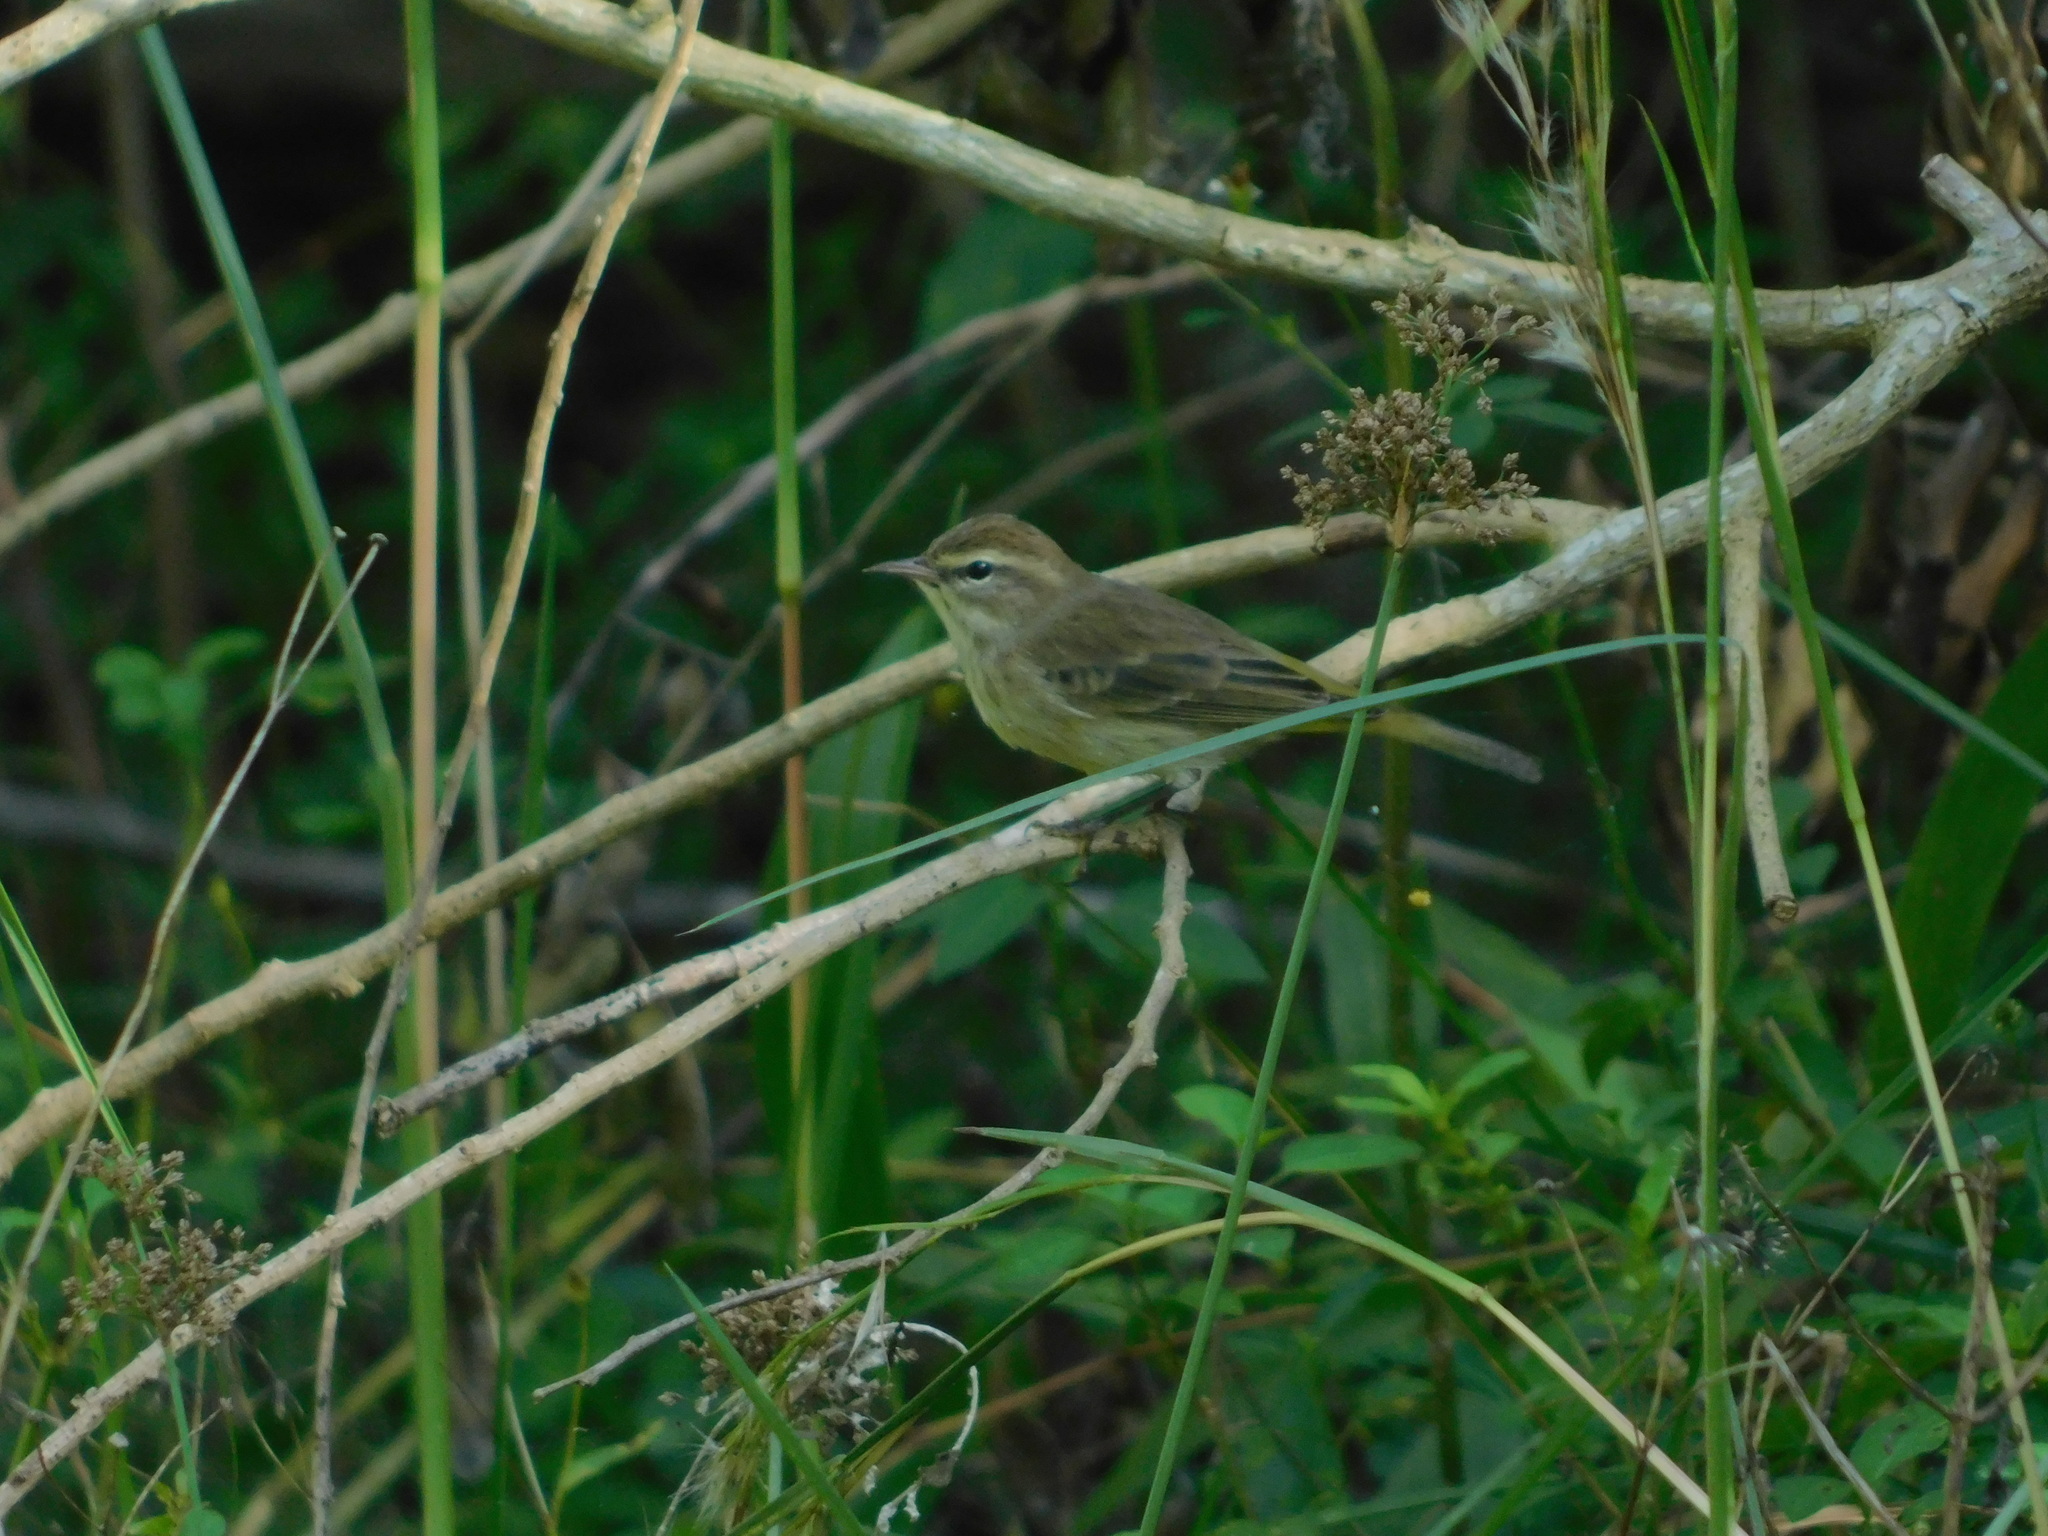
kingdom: Animalia
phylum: Chordata
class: Aves
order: Passeriformes
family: Parulidae
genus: Setophaga
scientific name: Setophaga palmarum
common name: Palm warbler
